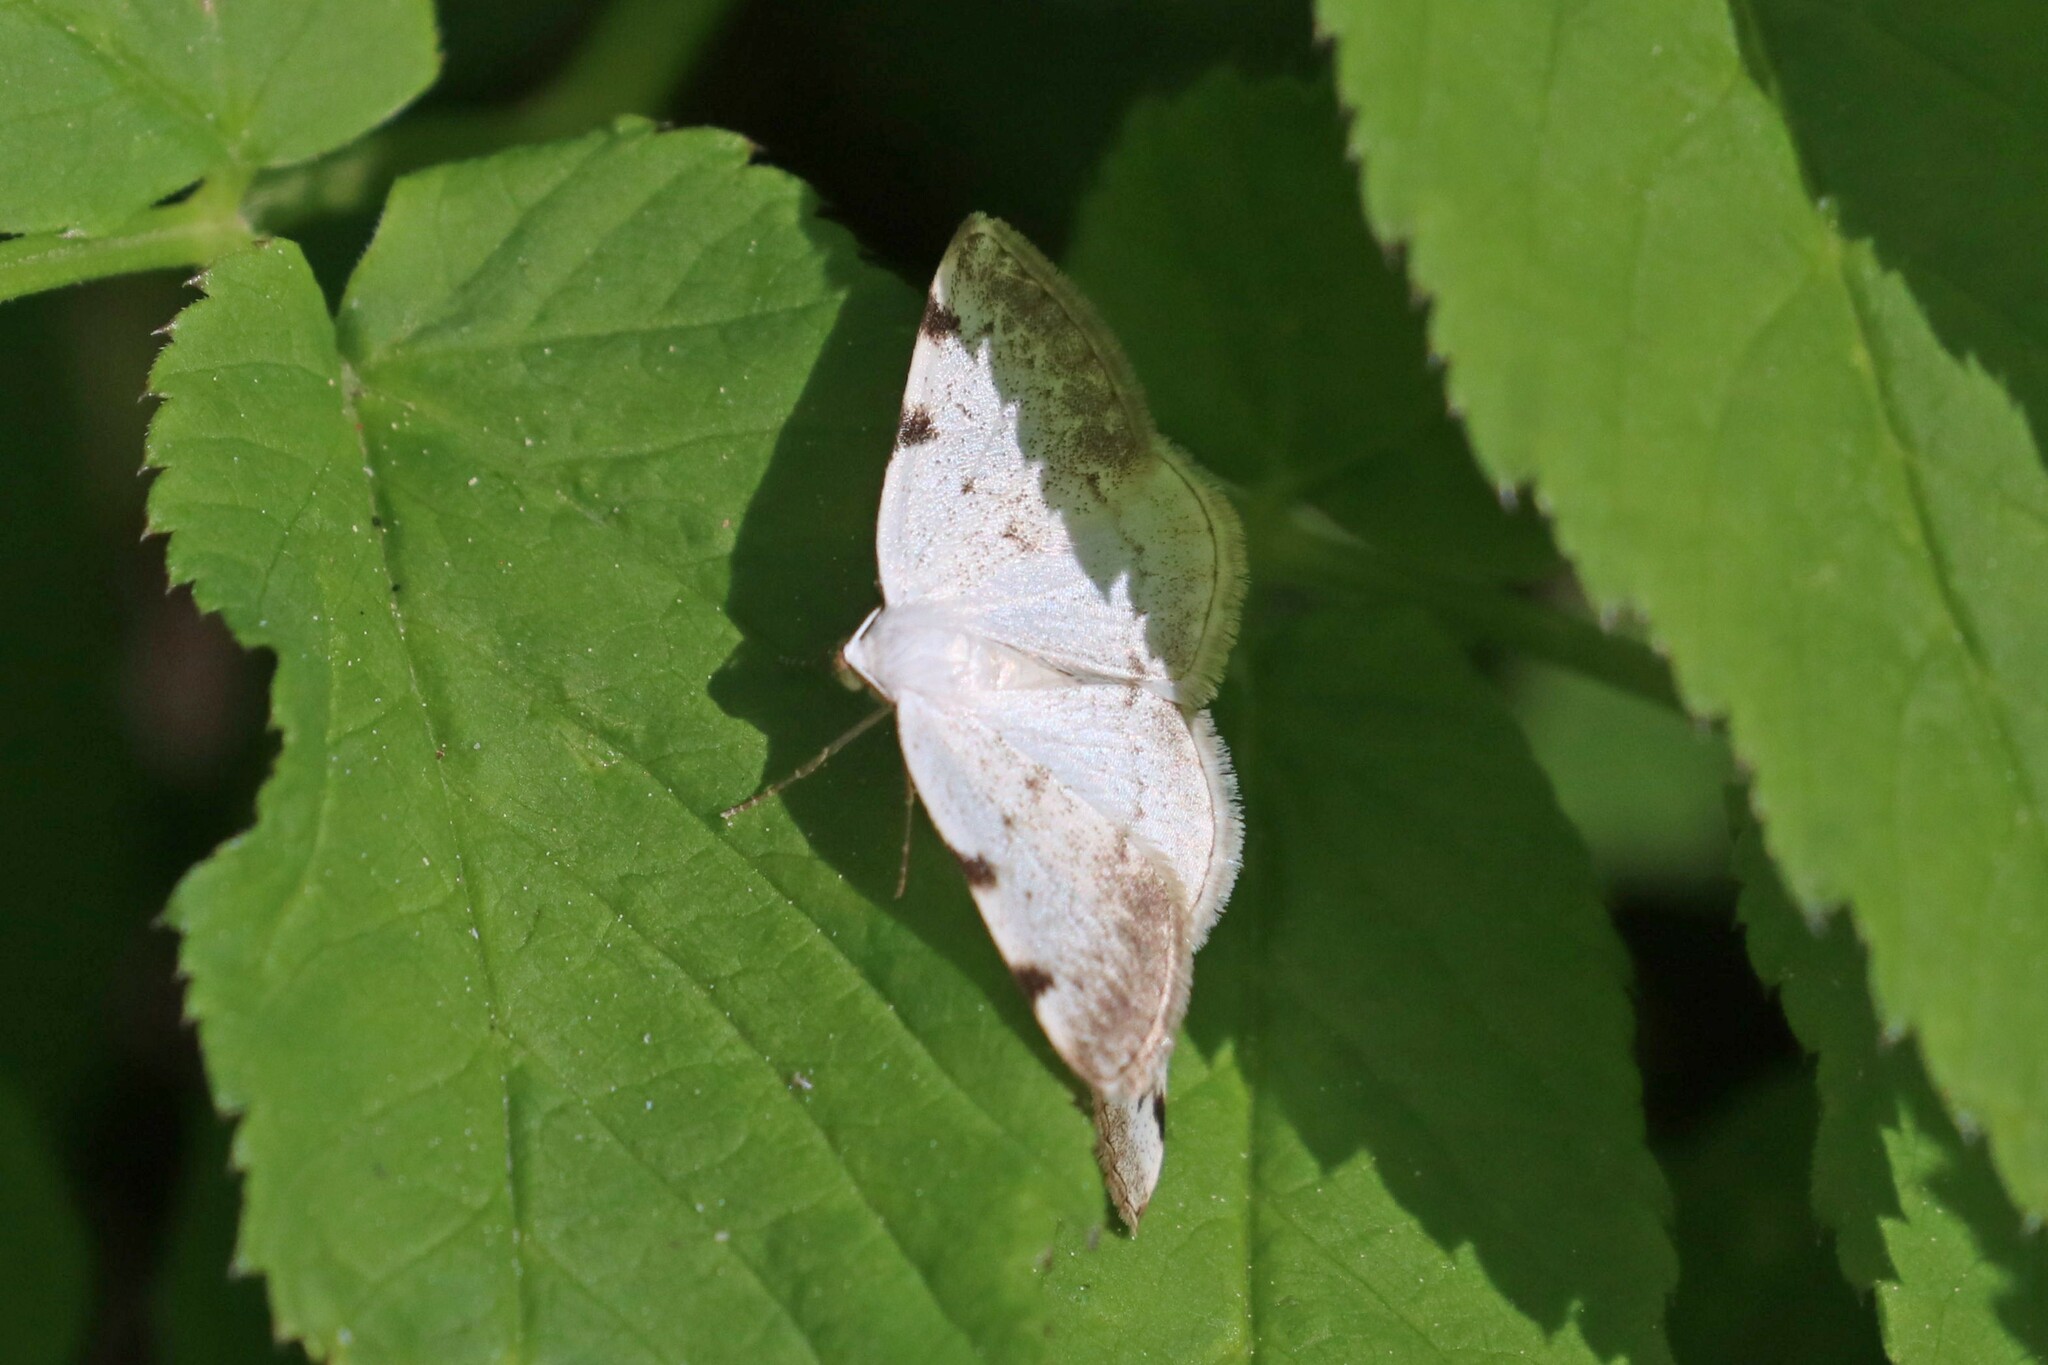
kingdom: Animalia
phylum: Arthropoda
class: Insecta
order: Lepidoptera
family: Geometridae
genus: Lomographa
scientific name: Lomographa bimaculata
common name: White-pinion spotted
